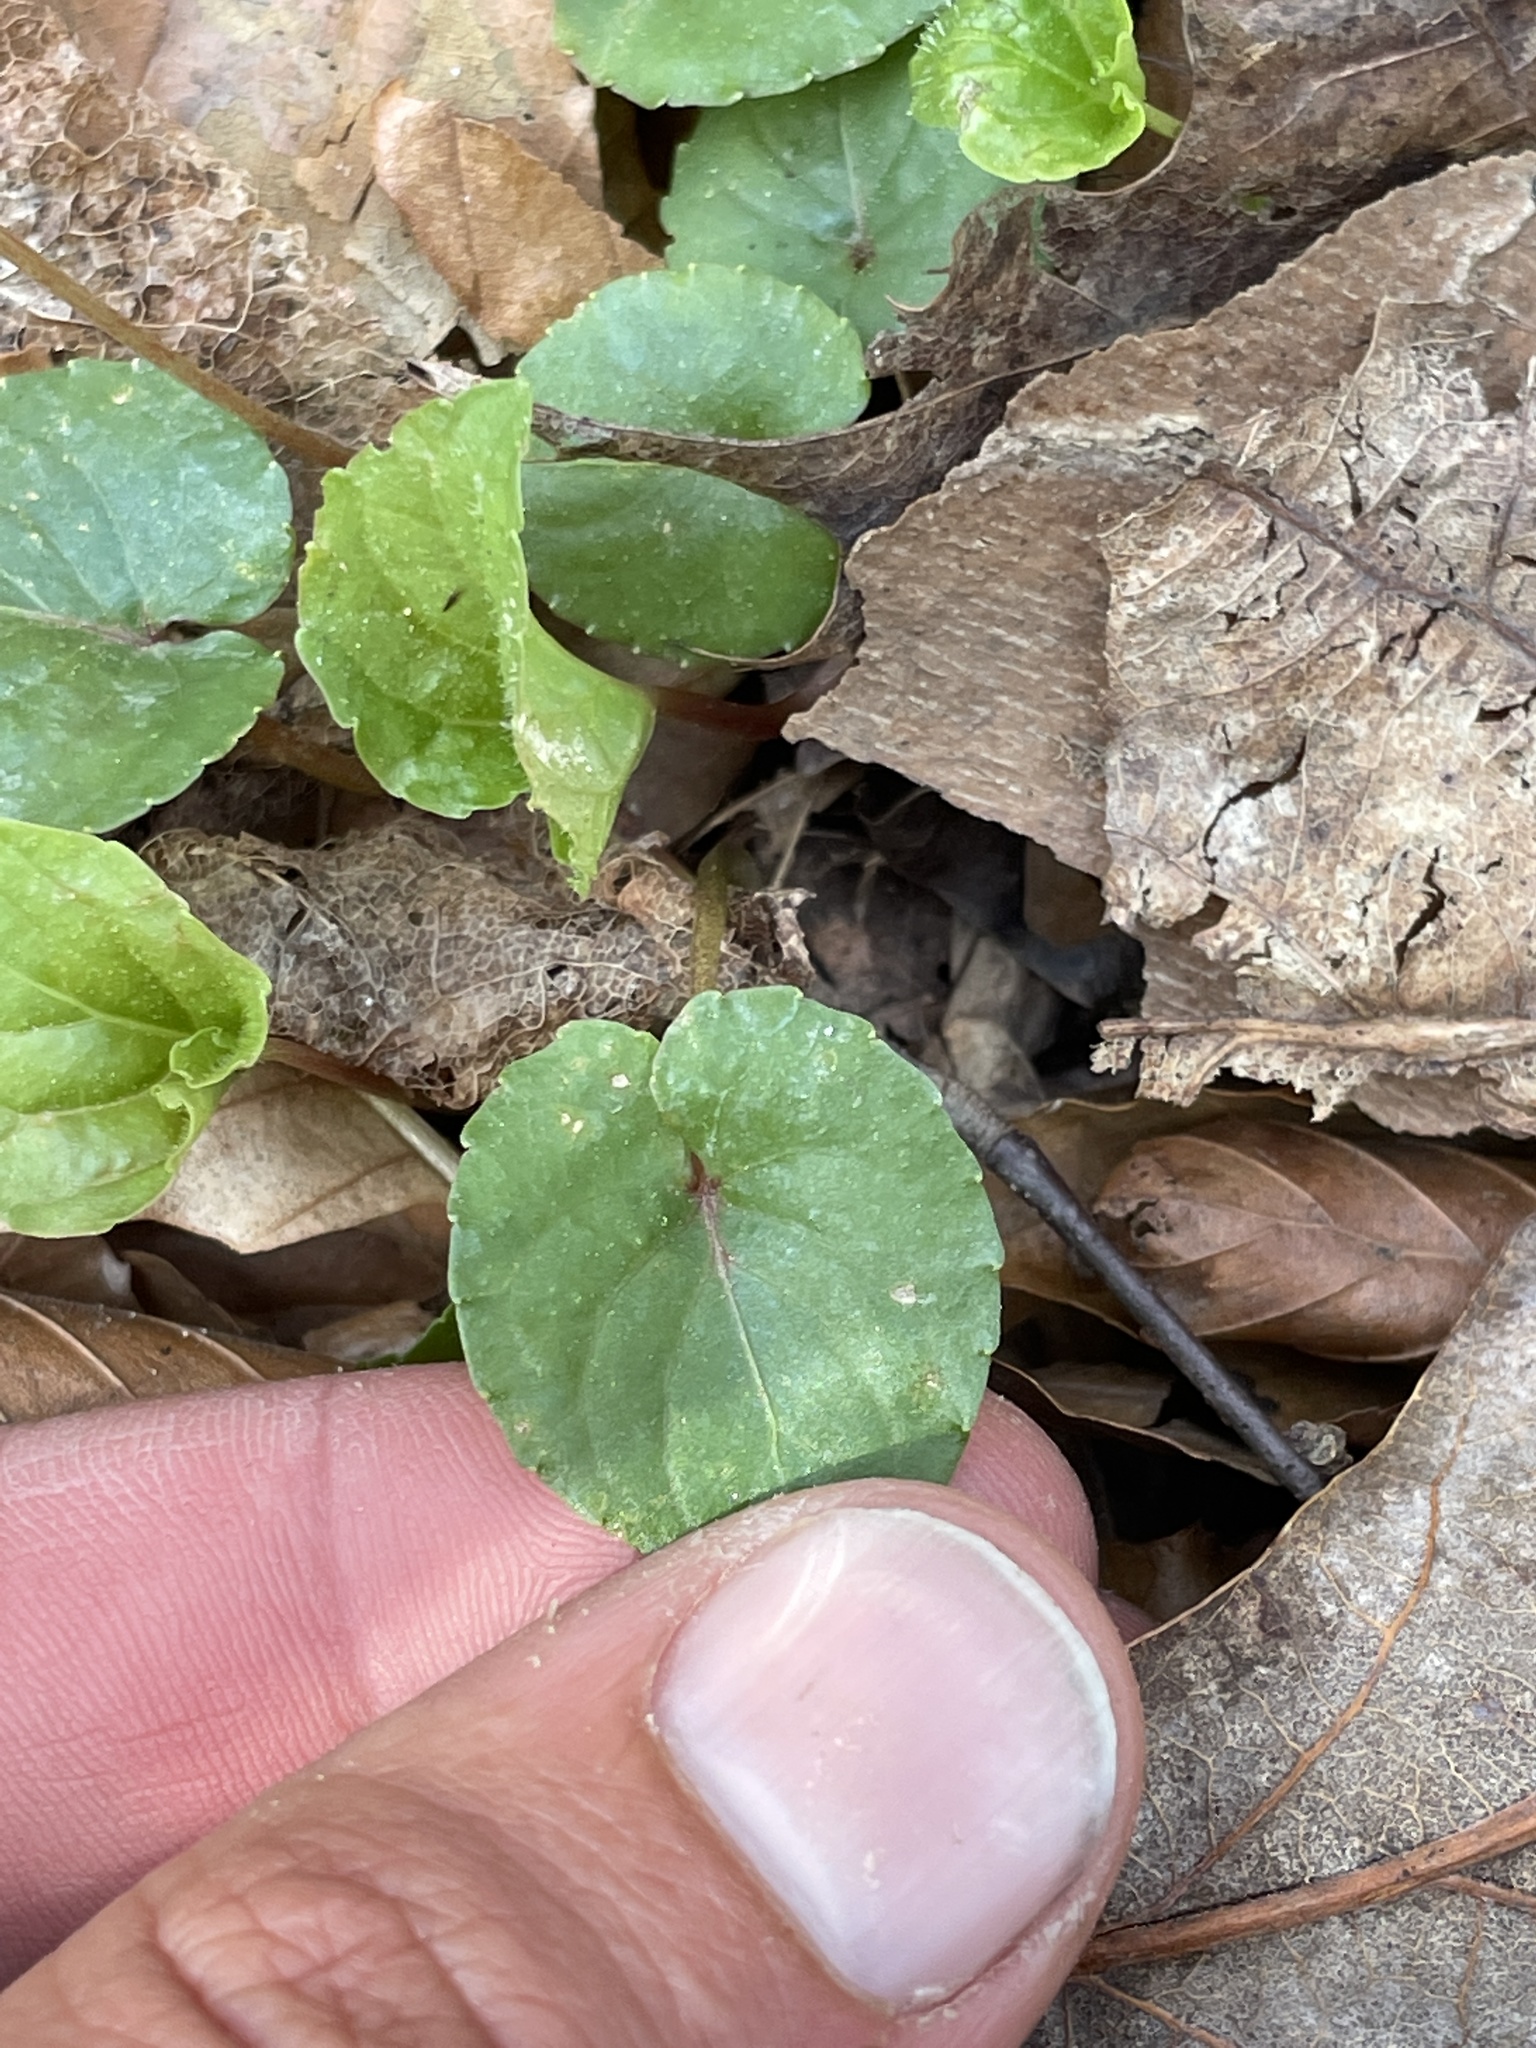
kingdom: Plantae
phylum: Tracheophyta
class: Magnoliopsida
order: Malpighiales
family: Violaceae
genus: Viola
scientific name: Viola blanda
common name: Sweet white violet
